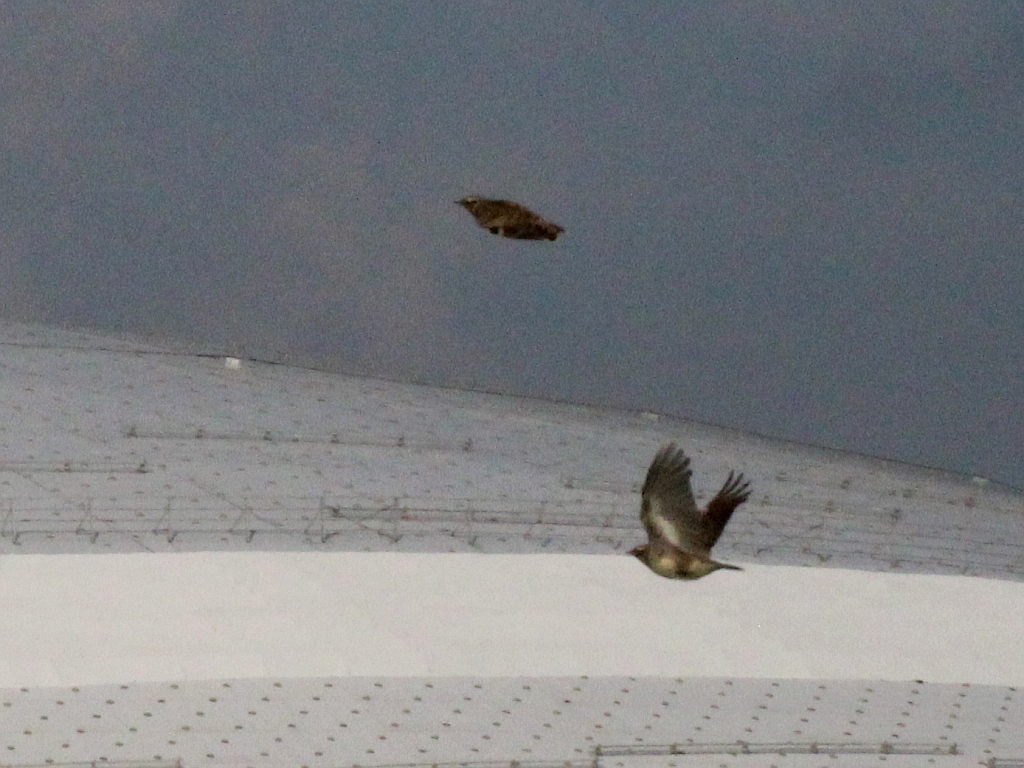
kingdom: Animalia
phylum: Chordata
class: Aves
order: Passeriformes
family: Alaudidae
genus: Lullula
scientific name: Lullula arborea
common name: Woodlark
